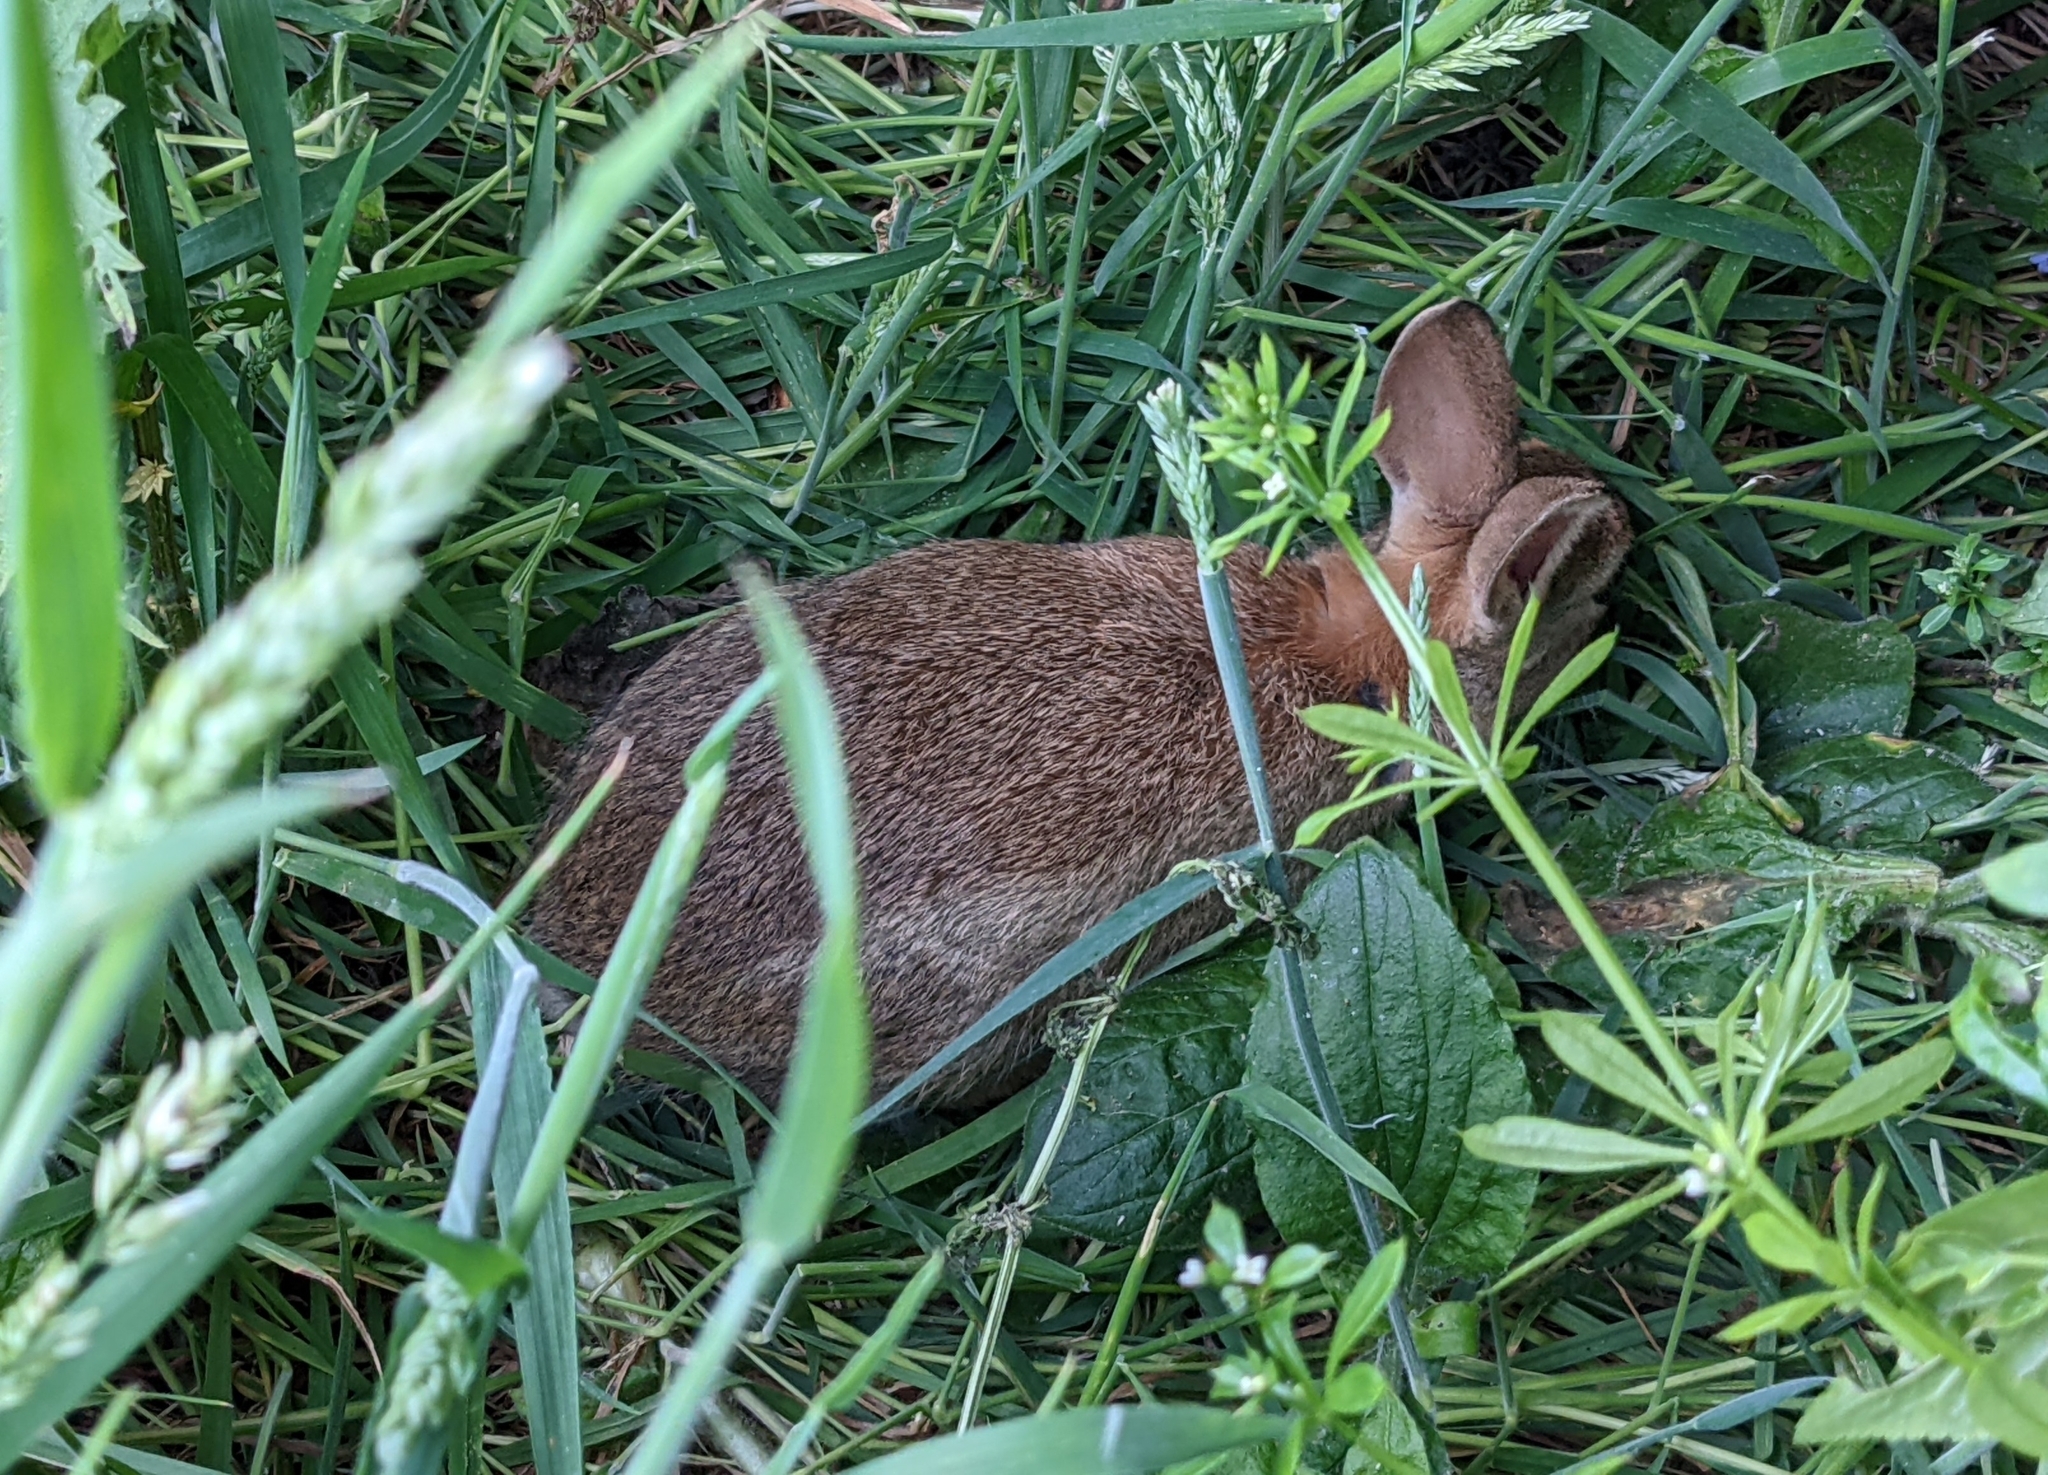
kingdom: Animalia
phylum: Chordata
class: Mammalia
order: Lagomorpha
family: Leporidae
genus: Oryctolagus
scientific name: Oryctolagus cuniculus
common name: European rabbit
